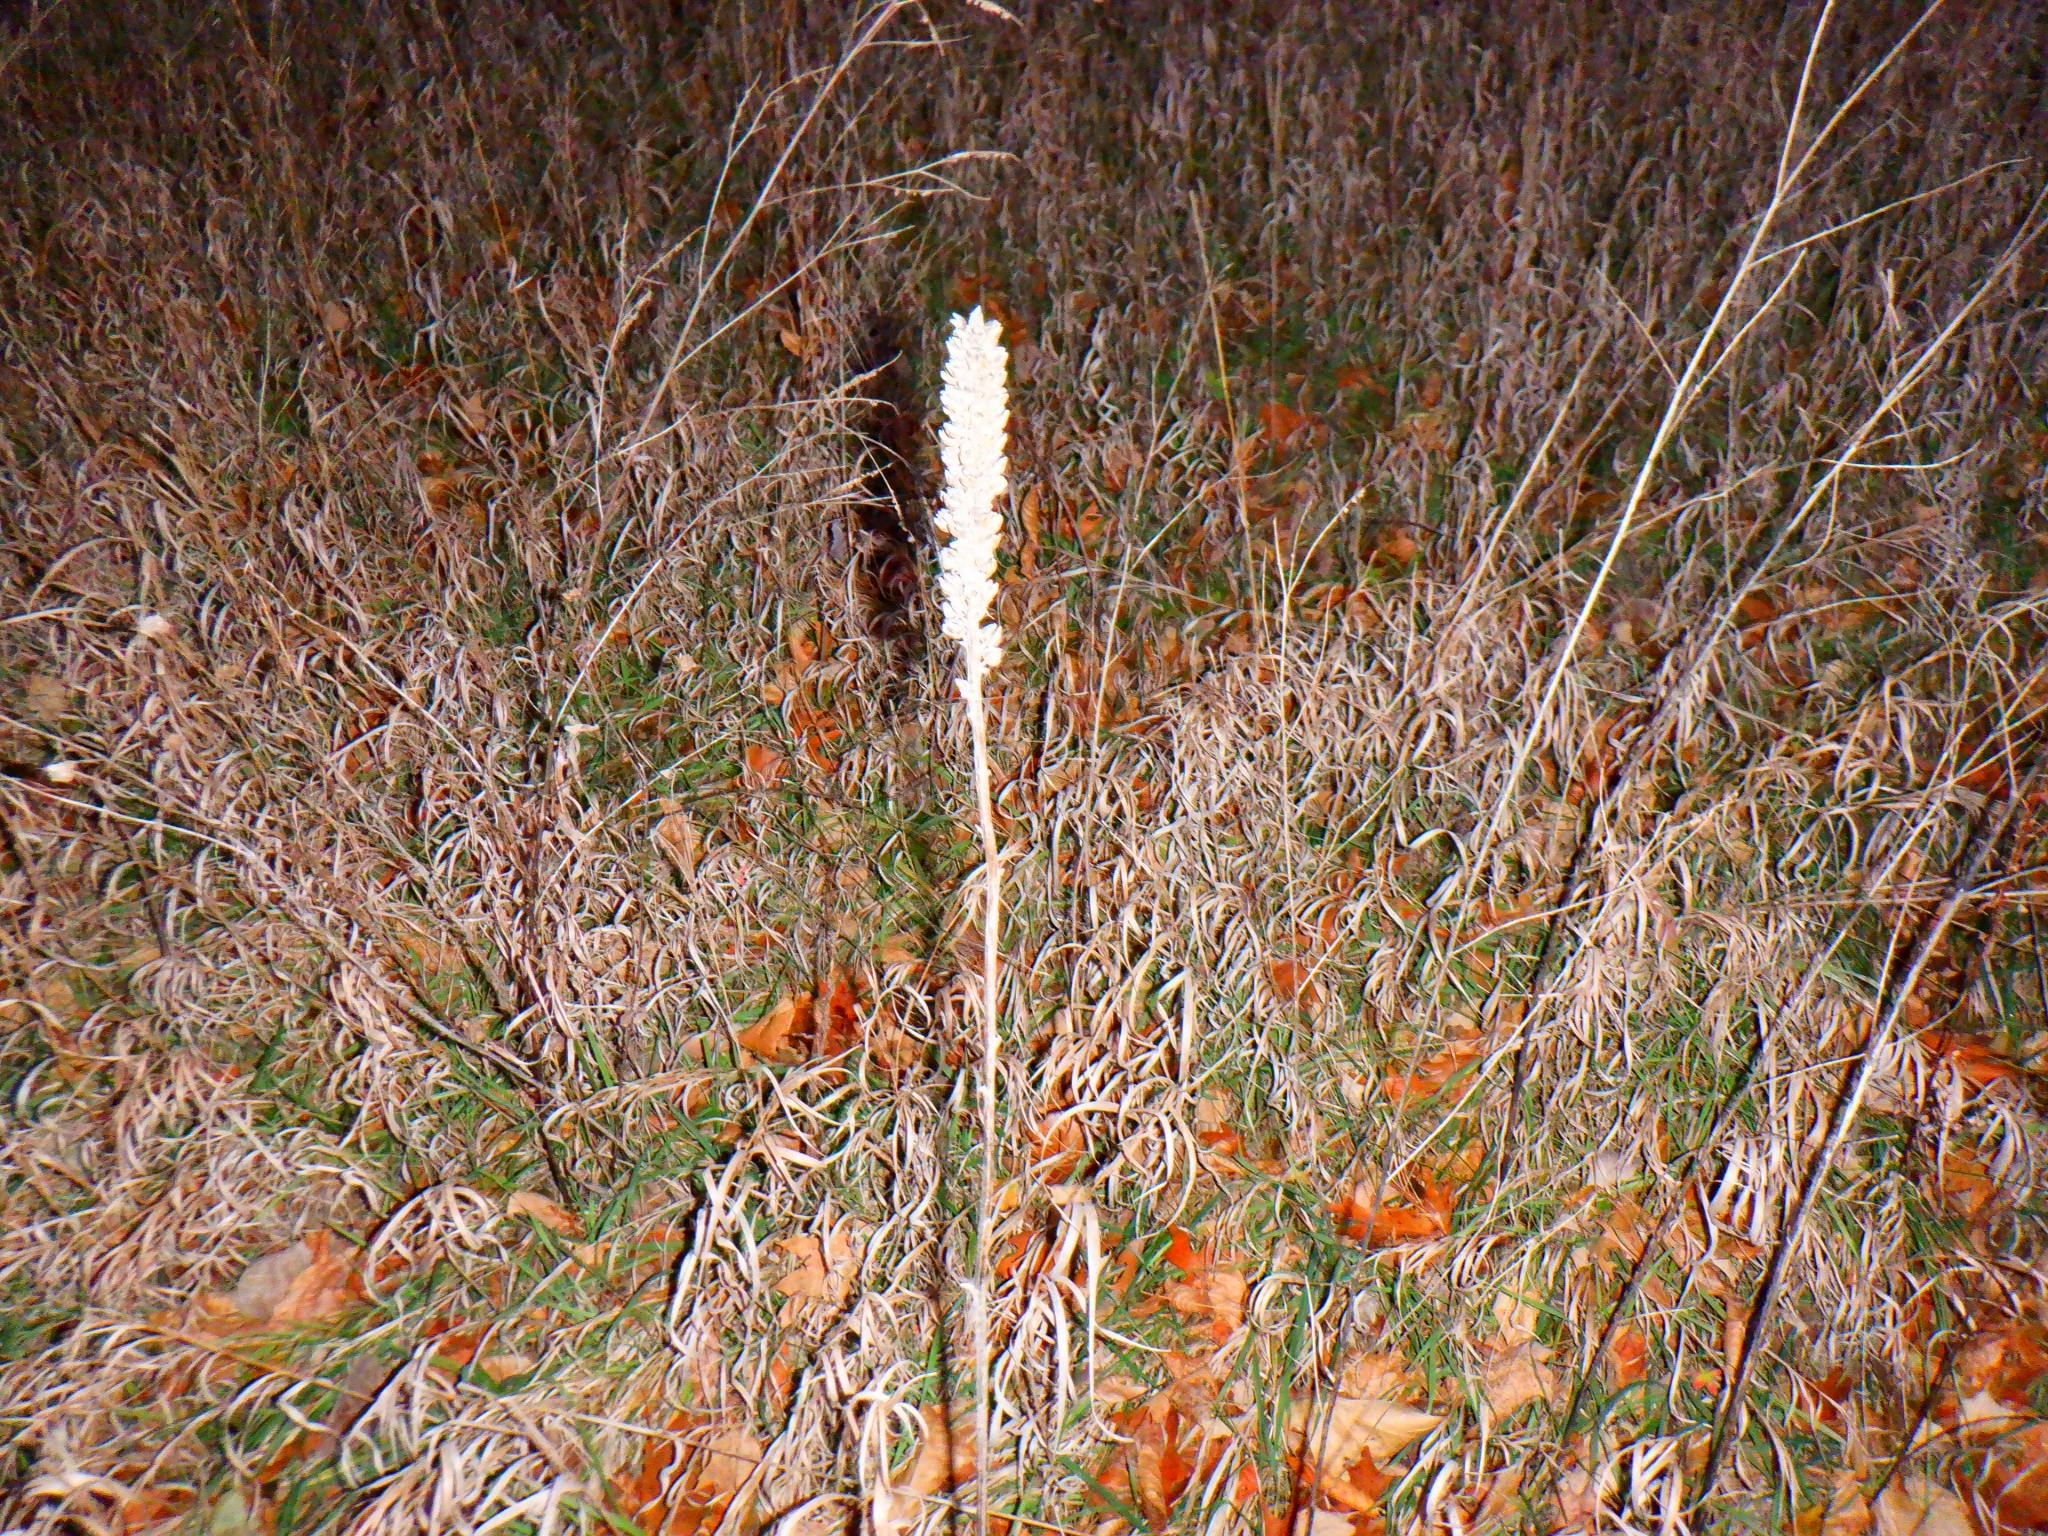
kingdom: Plantae
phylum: Tracheophyta
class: Magnoliopsida
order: Lamiales
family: Scrophulariaceae
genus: Verbascum
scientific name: Verbascum thapsus
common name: Common mullein
